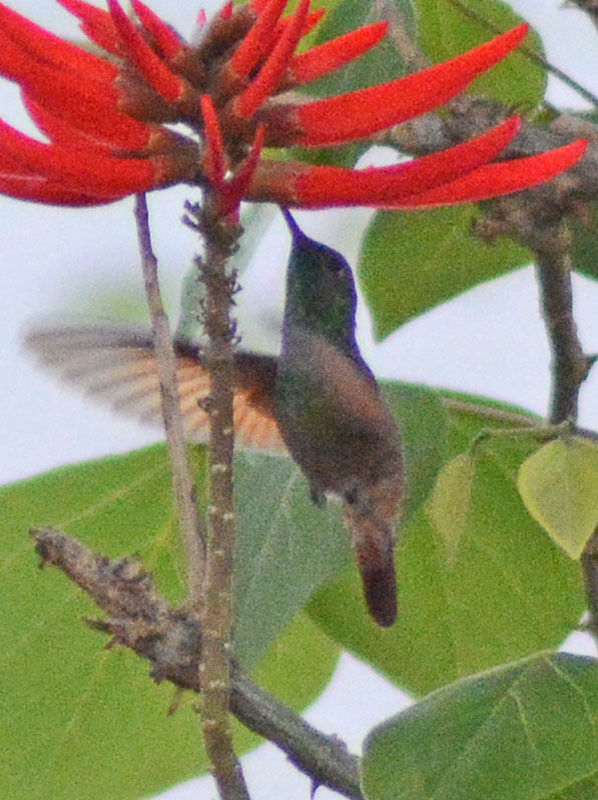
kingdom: Animalia
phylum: Chordata
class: Aves
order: Apodiformes
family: Trochilidae
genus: Saucerottia
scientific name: Saucerottia beryllina
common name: Berylline hummingbird
